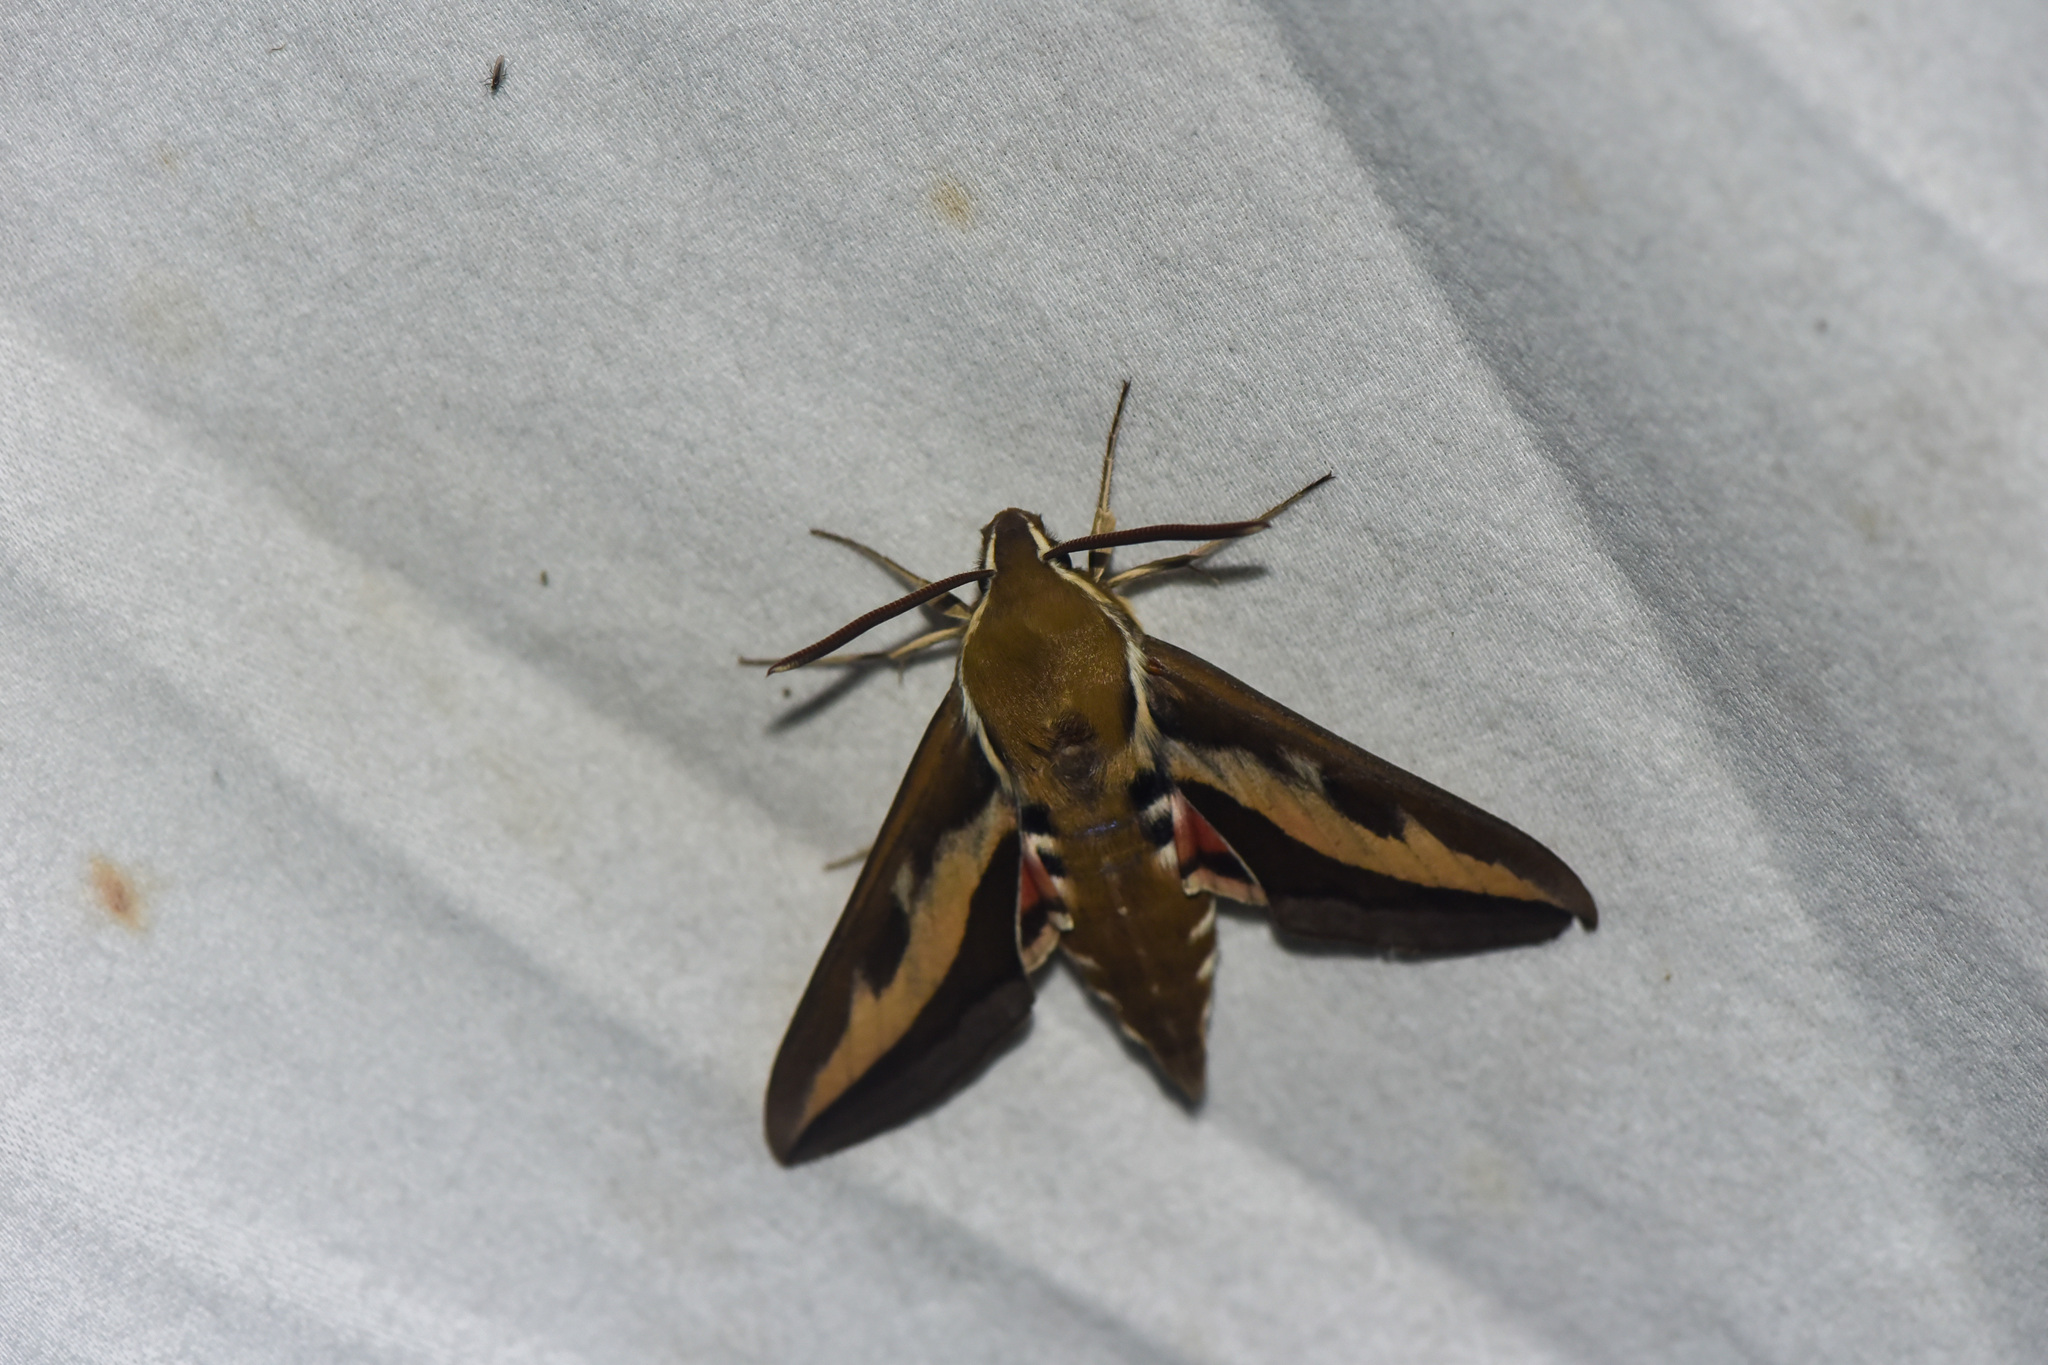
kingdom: Animalia
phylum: Arthropoda
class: Insecta
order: Lepidoptera
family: Sphingidae
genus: Hyles
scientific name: Hyles gallii
